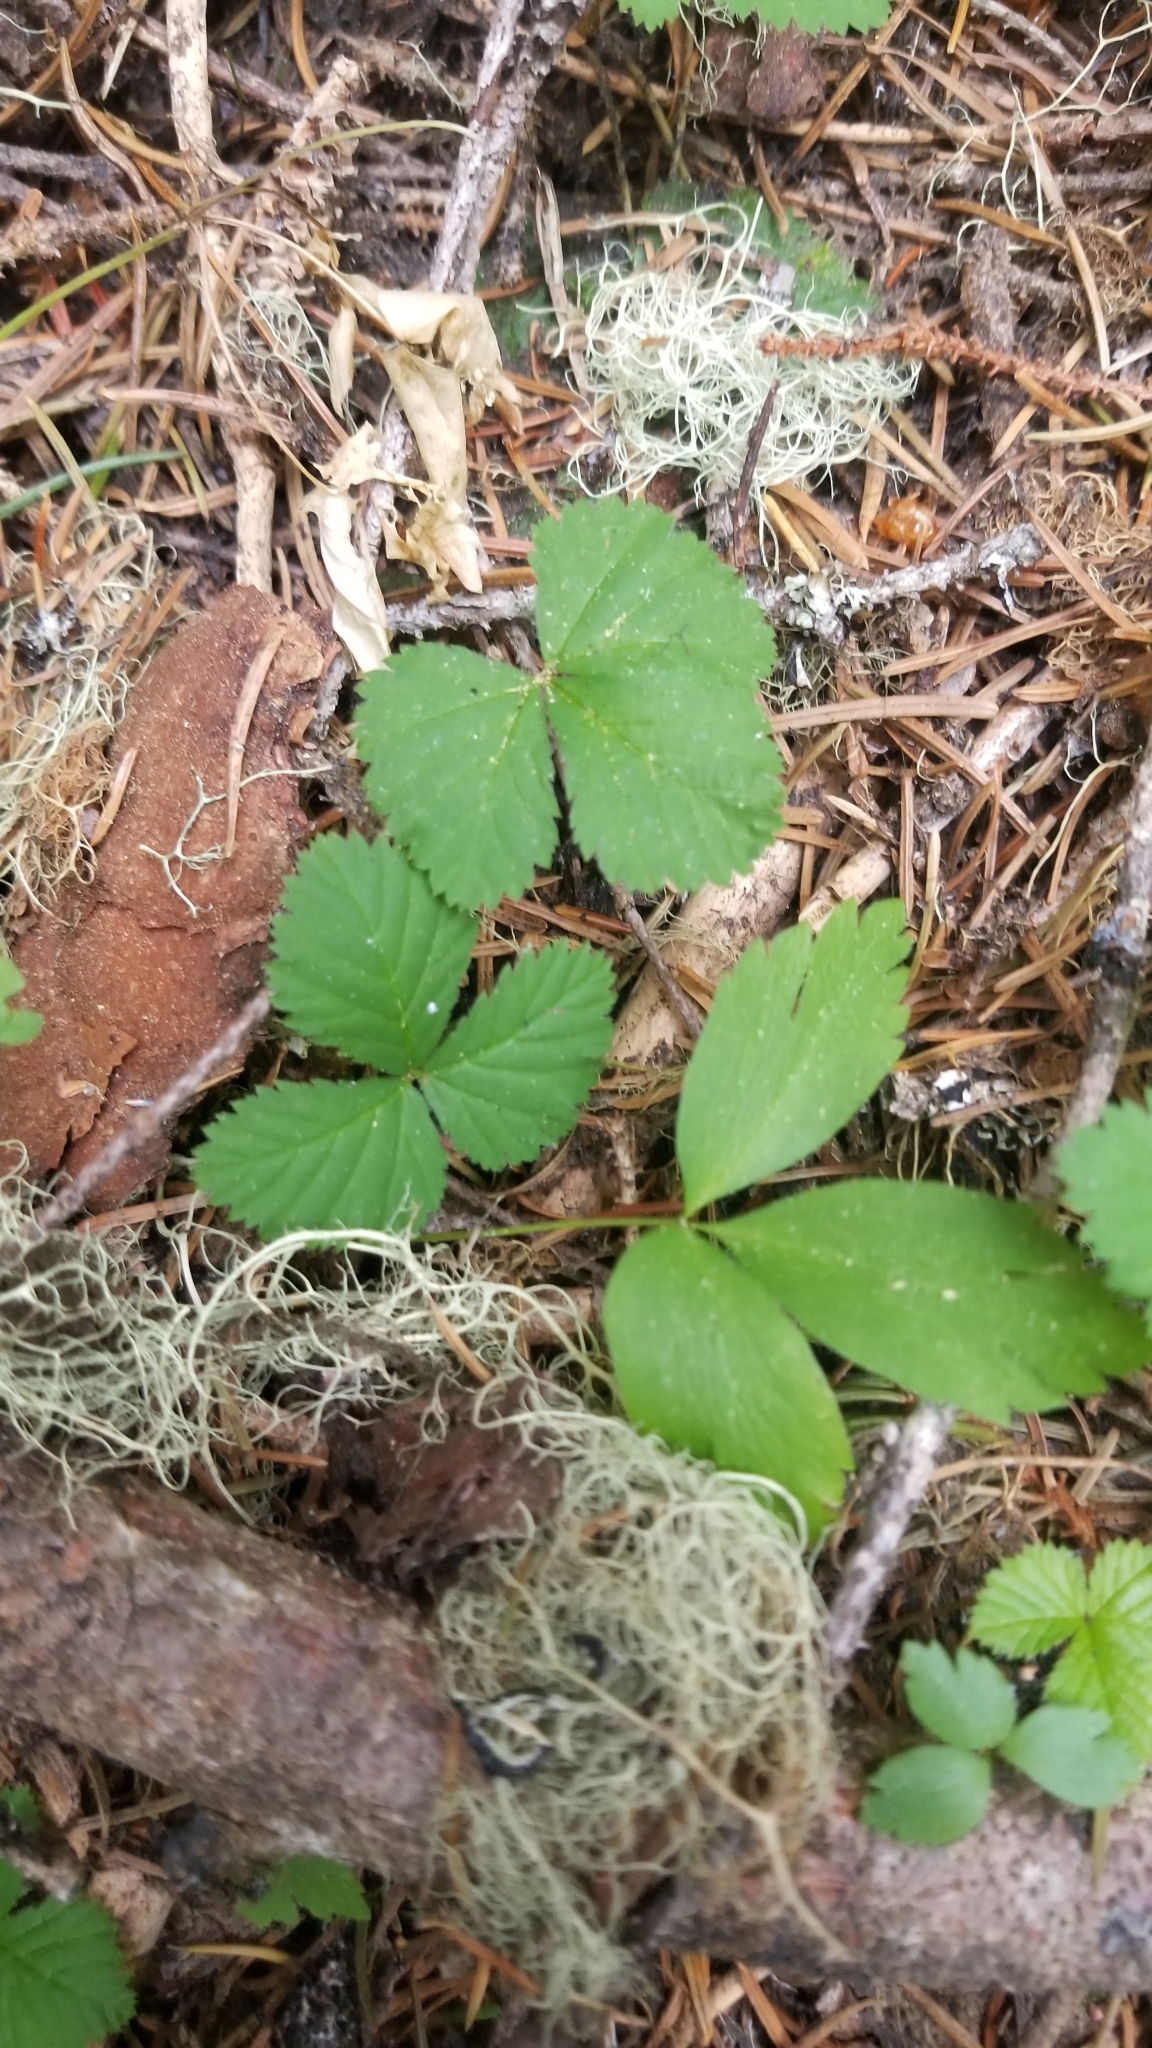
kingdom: Plantae
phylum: Tracheophyta
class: Magnoliopsida
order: Rosales
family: Rosaceae
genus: Rubus
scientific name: Rubus lasiococcus
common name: Dwarf bramble
